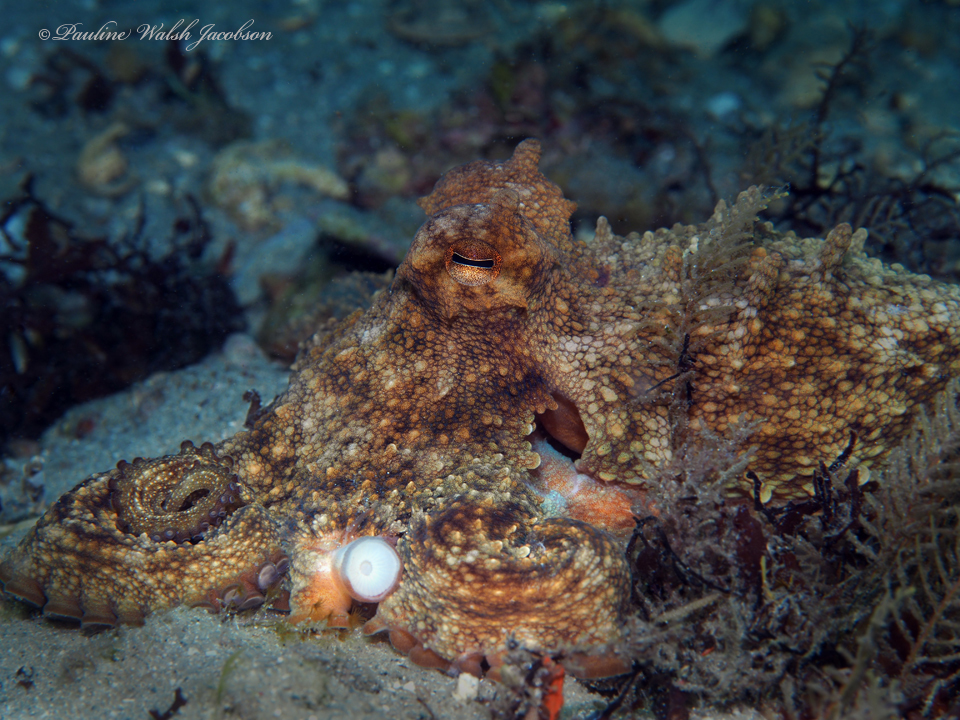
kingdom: Animalia
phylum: Mollusca
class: Cephalopoda
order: Octopoda
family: Octopodidae
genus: Octopus
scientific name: Octopus americanus
